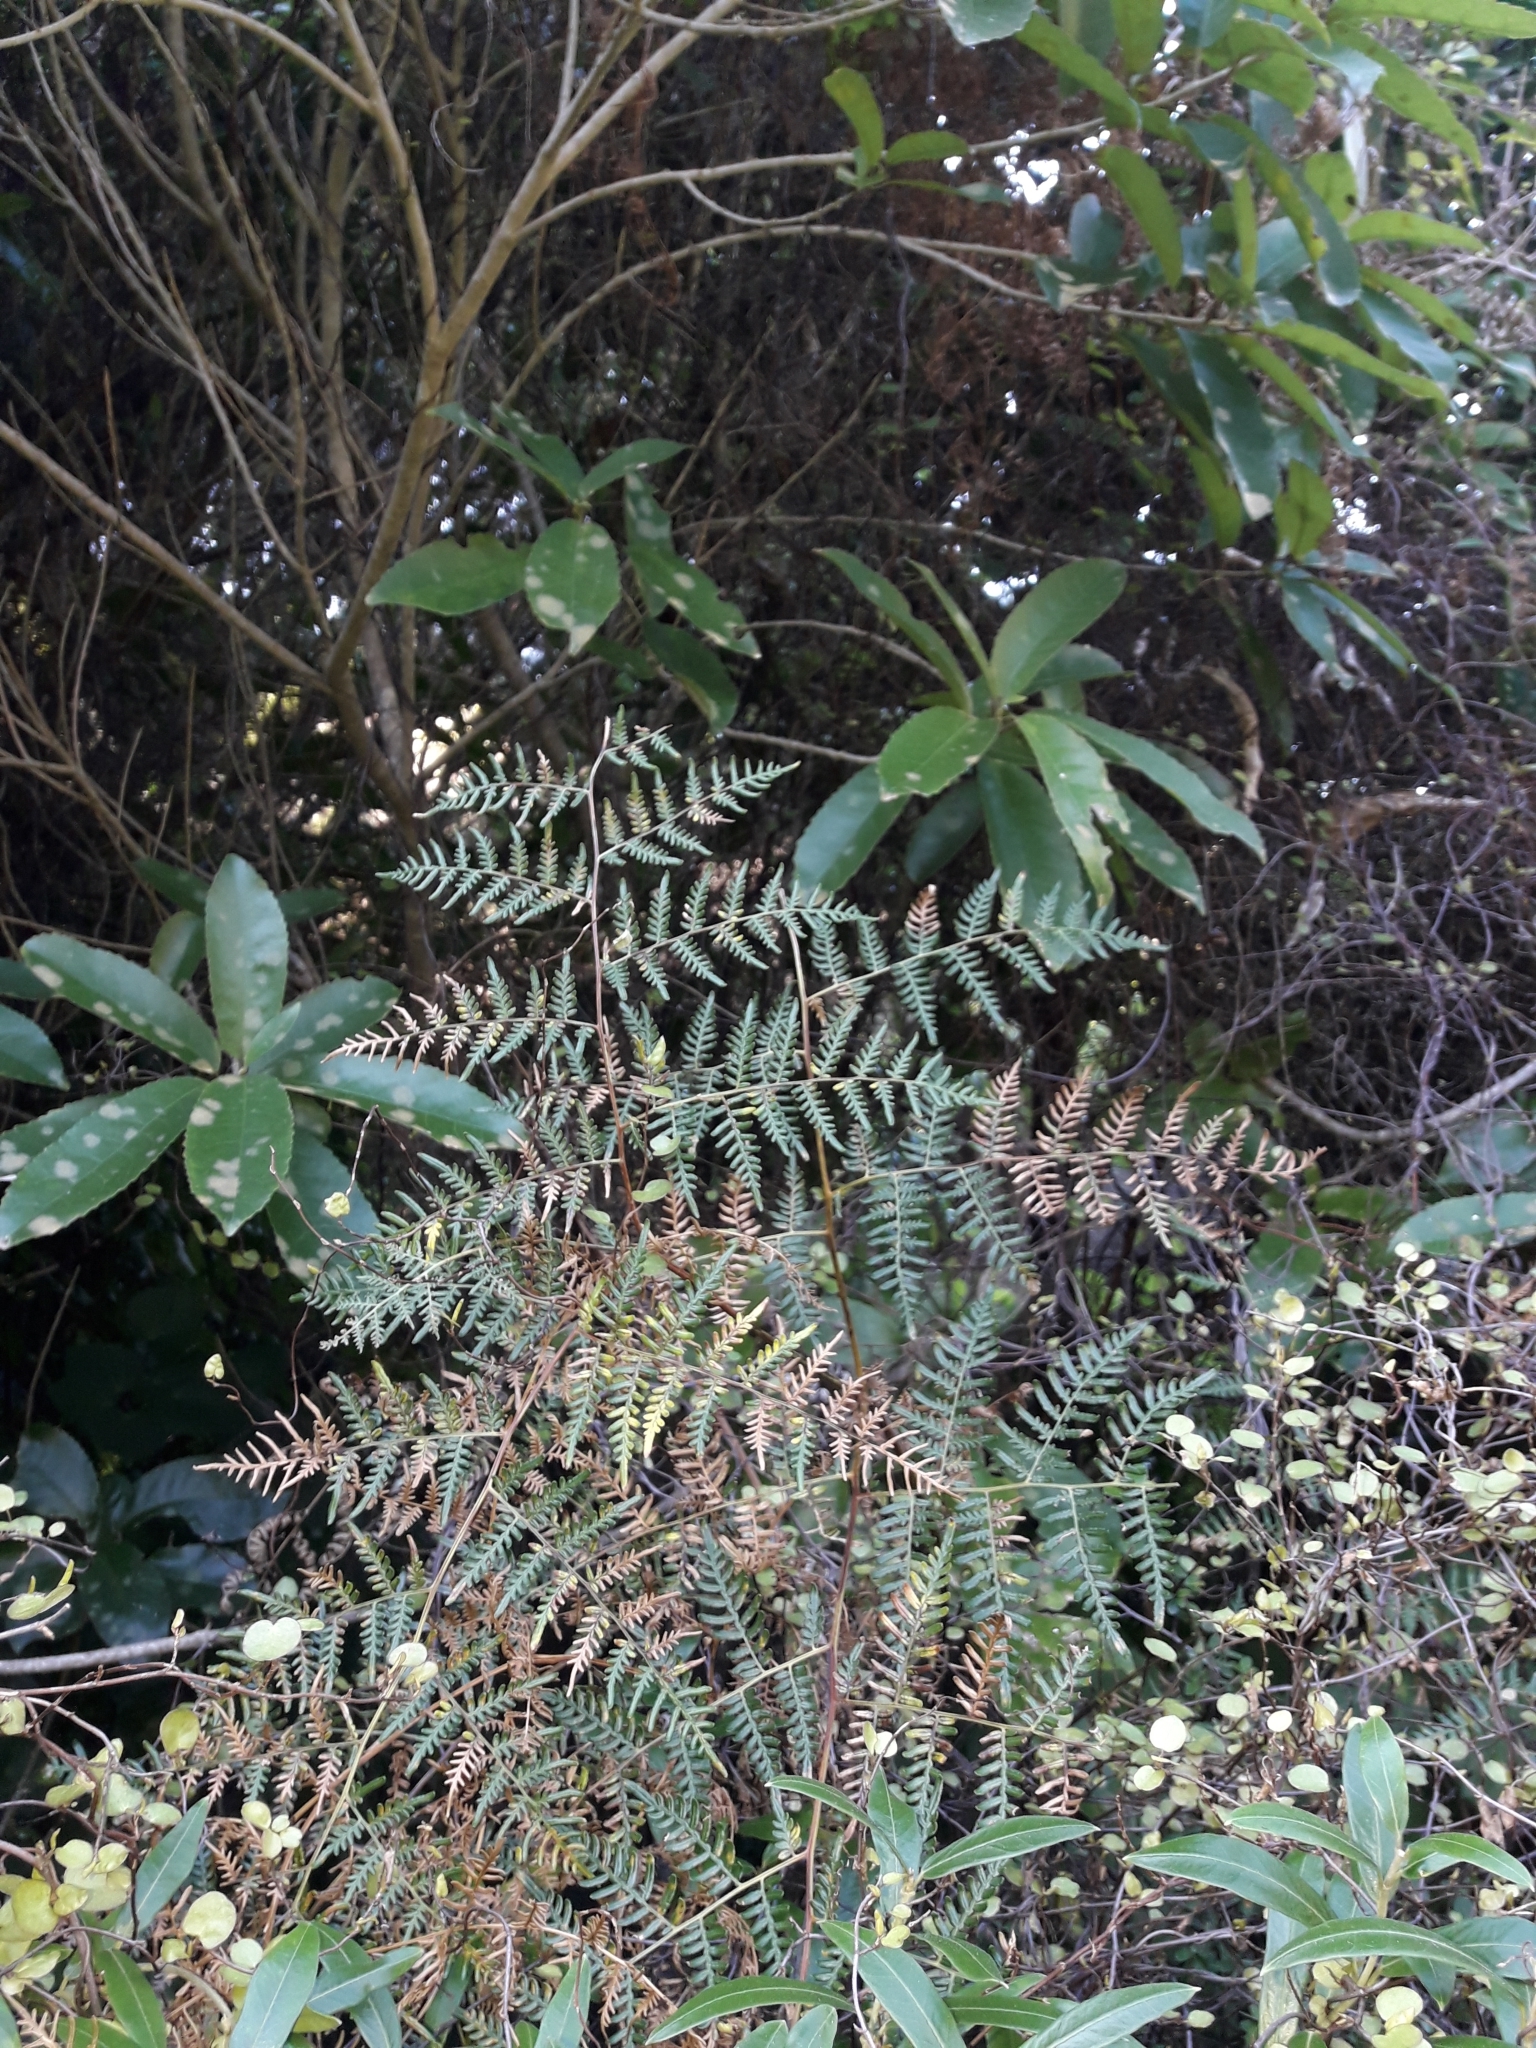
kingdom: Plantae
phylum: Tracheophyta
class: Polypodiopsida
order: Polypodiales
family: Dennstaedtiaceae
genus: Pteridium
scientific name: Pteridium esculentum
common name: Bracken fern
